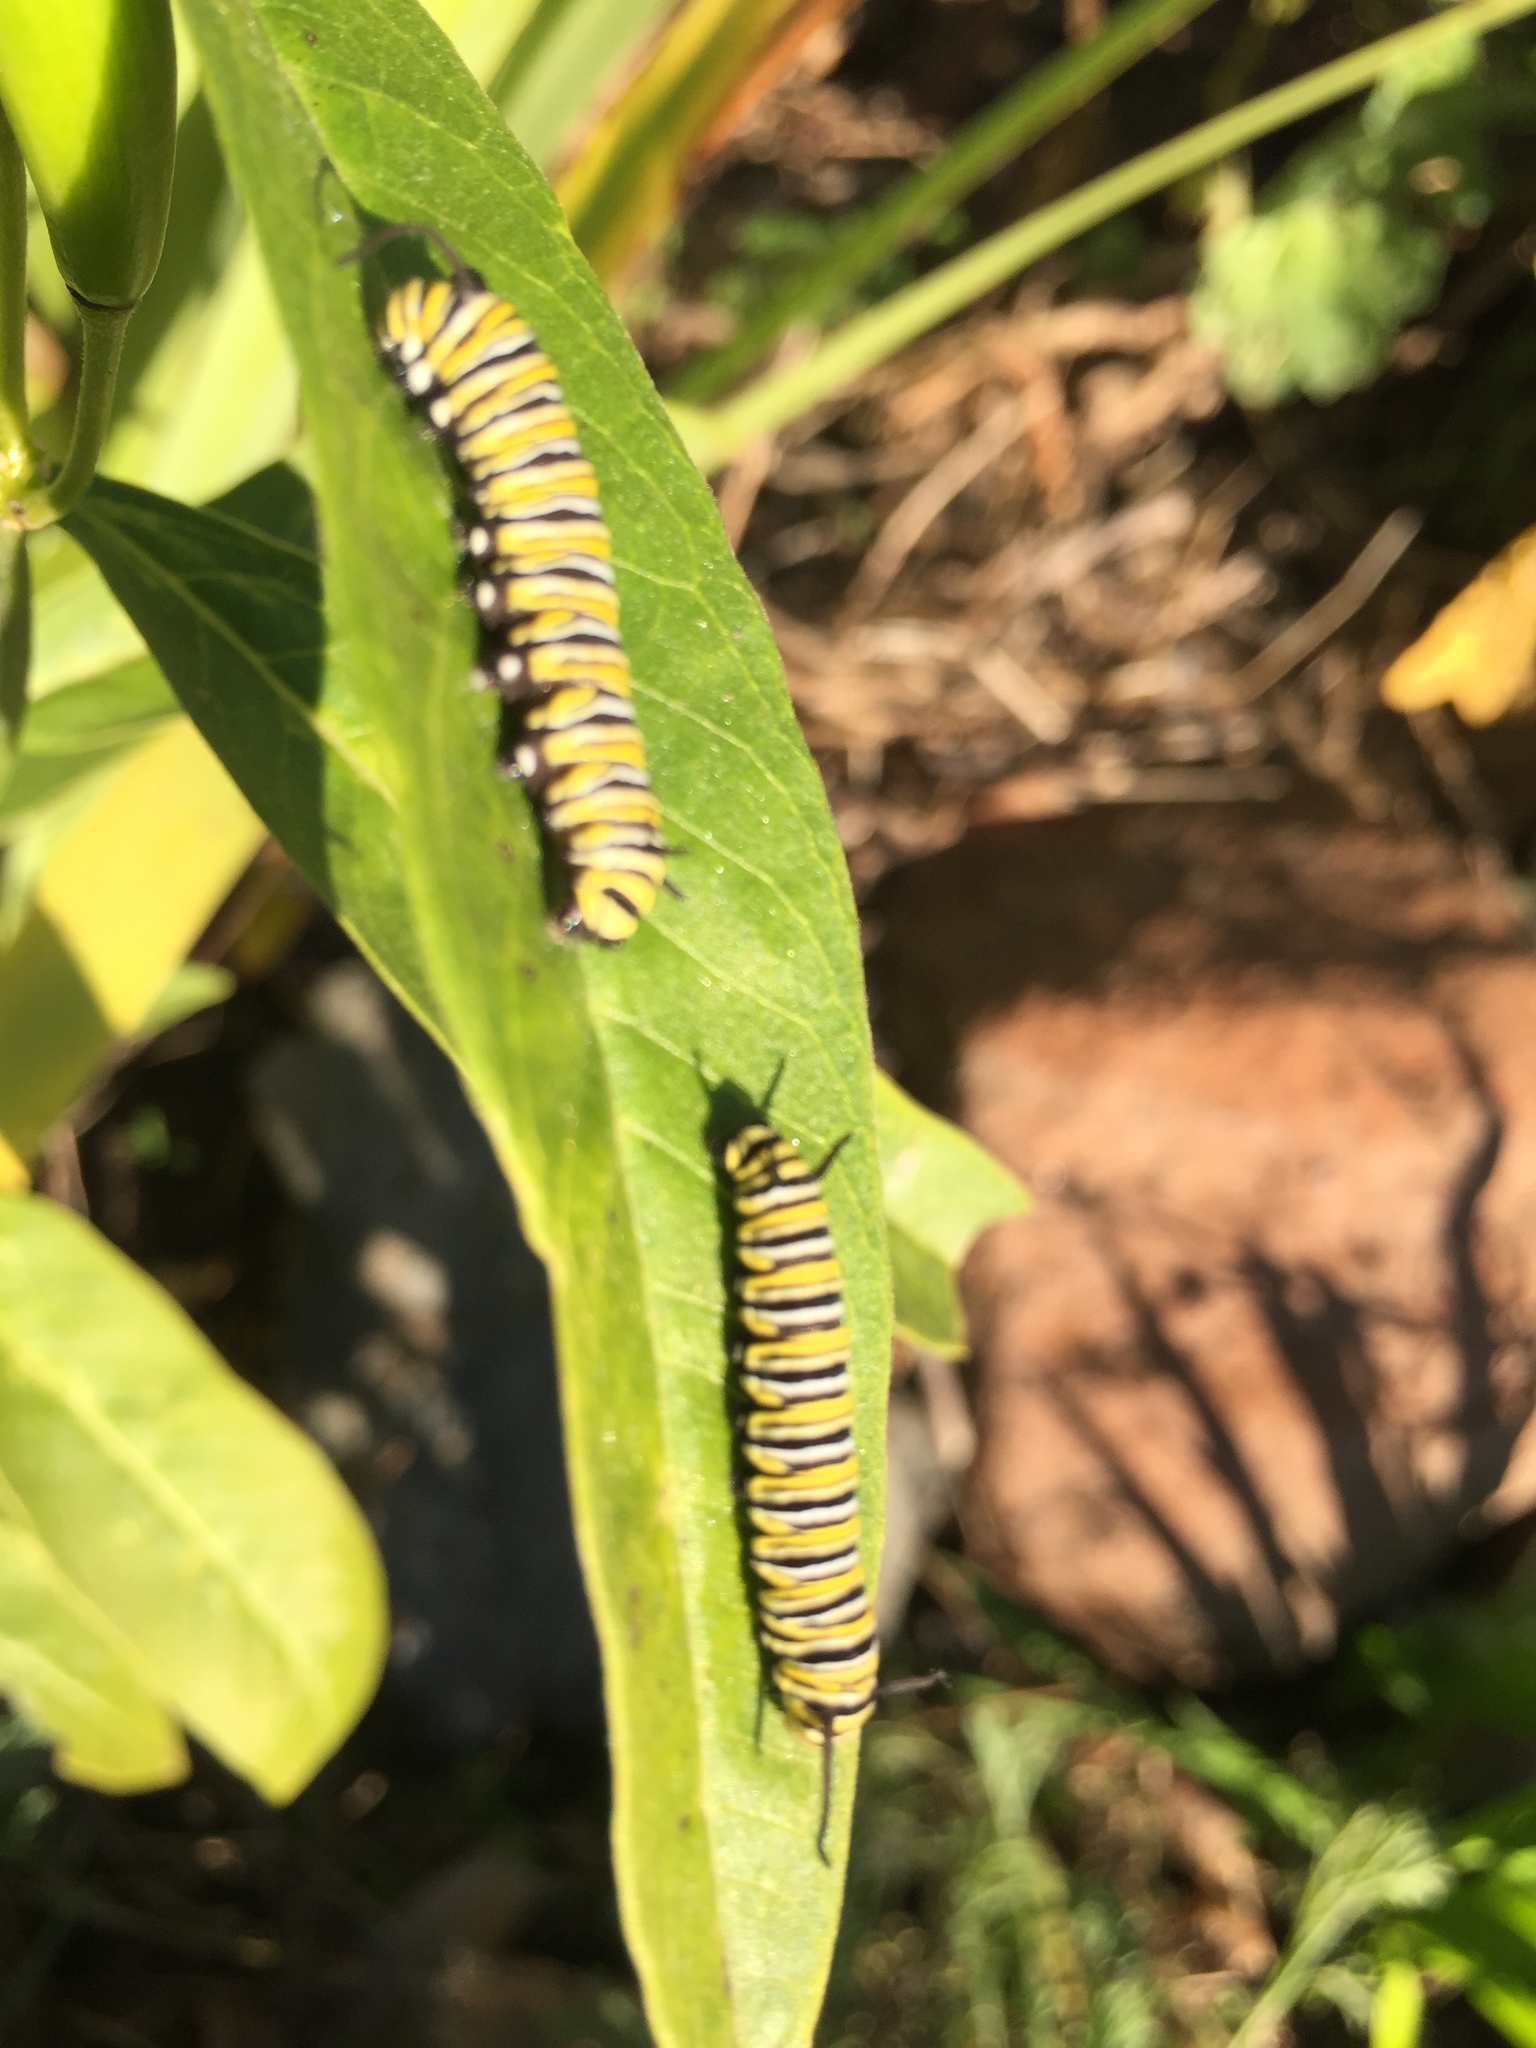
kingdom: Animalia
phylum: Arthropoda
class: Insecta
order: Lepidoptera
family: Nymphalidae
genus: Danaus
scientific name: Danaus plexippus
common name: Monarch
